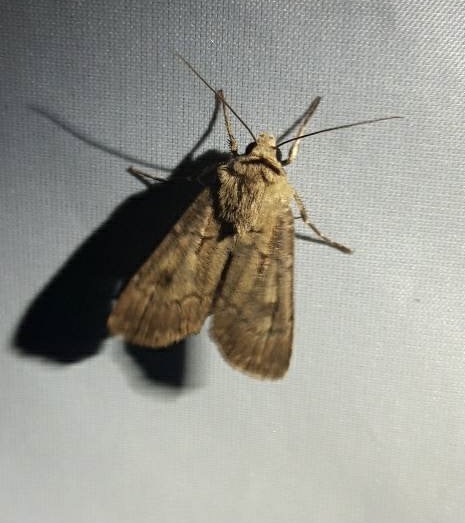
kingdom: Animalia
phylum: Arthropoda
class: Insecta
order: Lepidoptera
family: Noctuidae
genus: Agrotis
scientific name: Agrotis exclamationis
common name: Heart and dart
